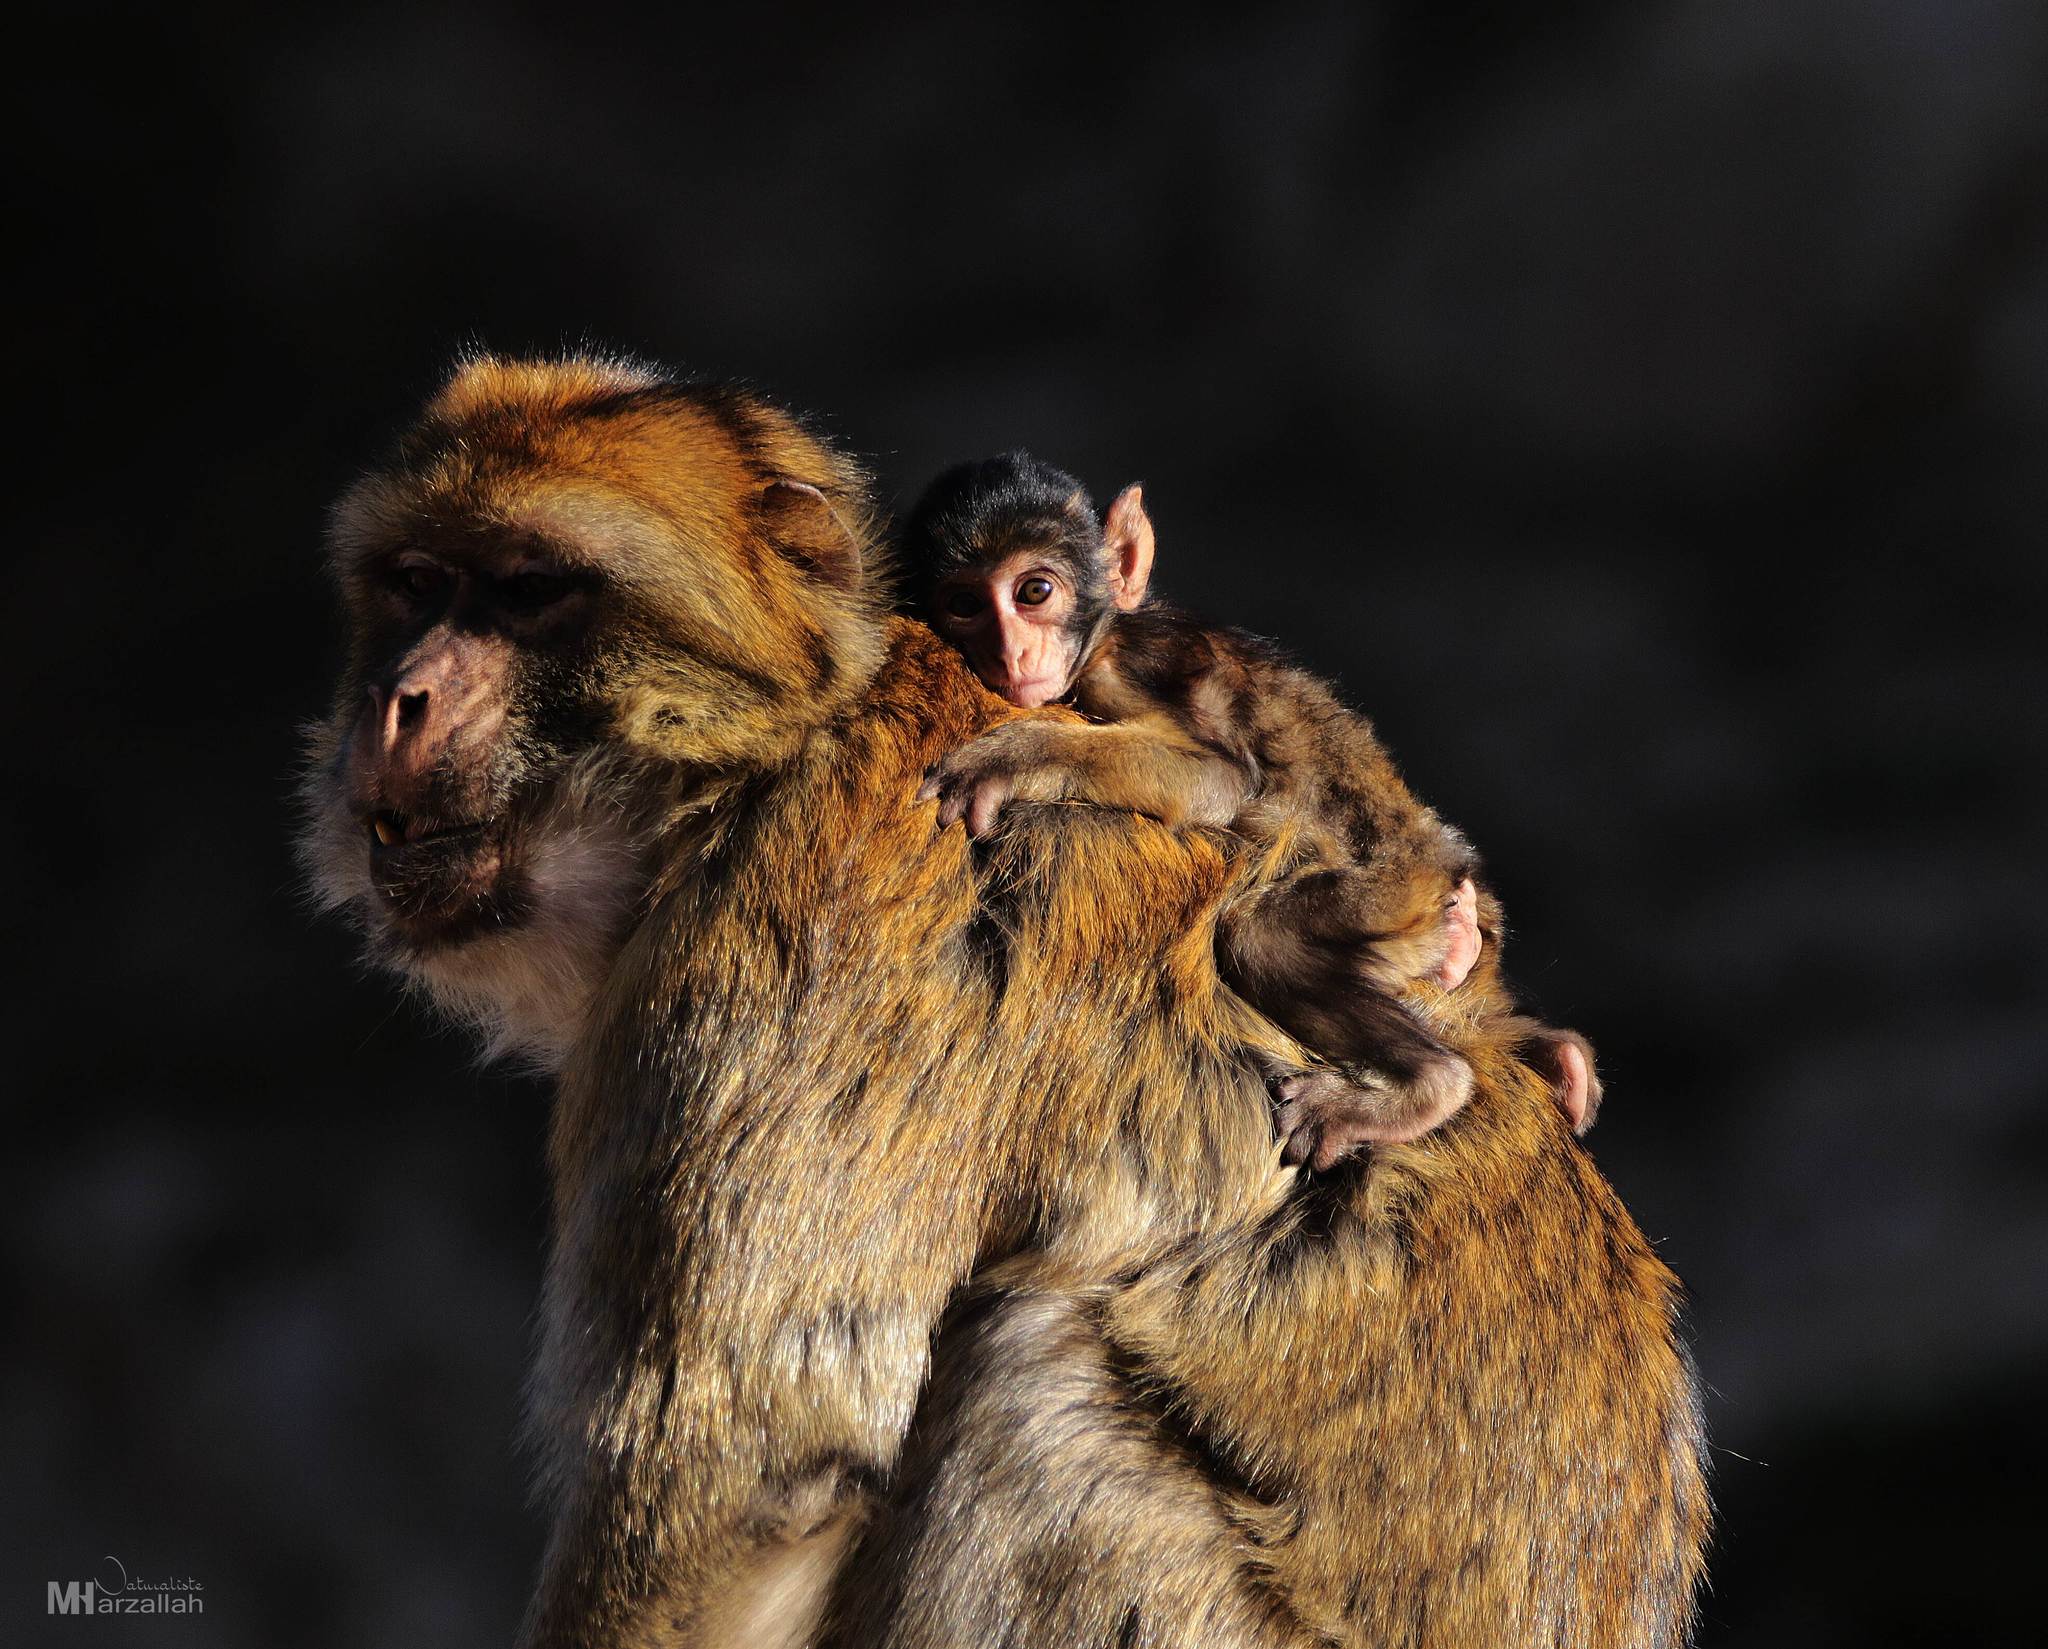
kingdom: Animalia
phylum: Chordata
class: Mammalia
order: Primates
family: Cercopithecidae
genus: Macaca
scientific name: Macaca sylvanus
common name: Barbary macaque
